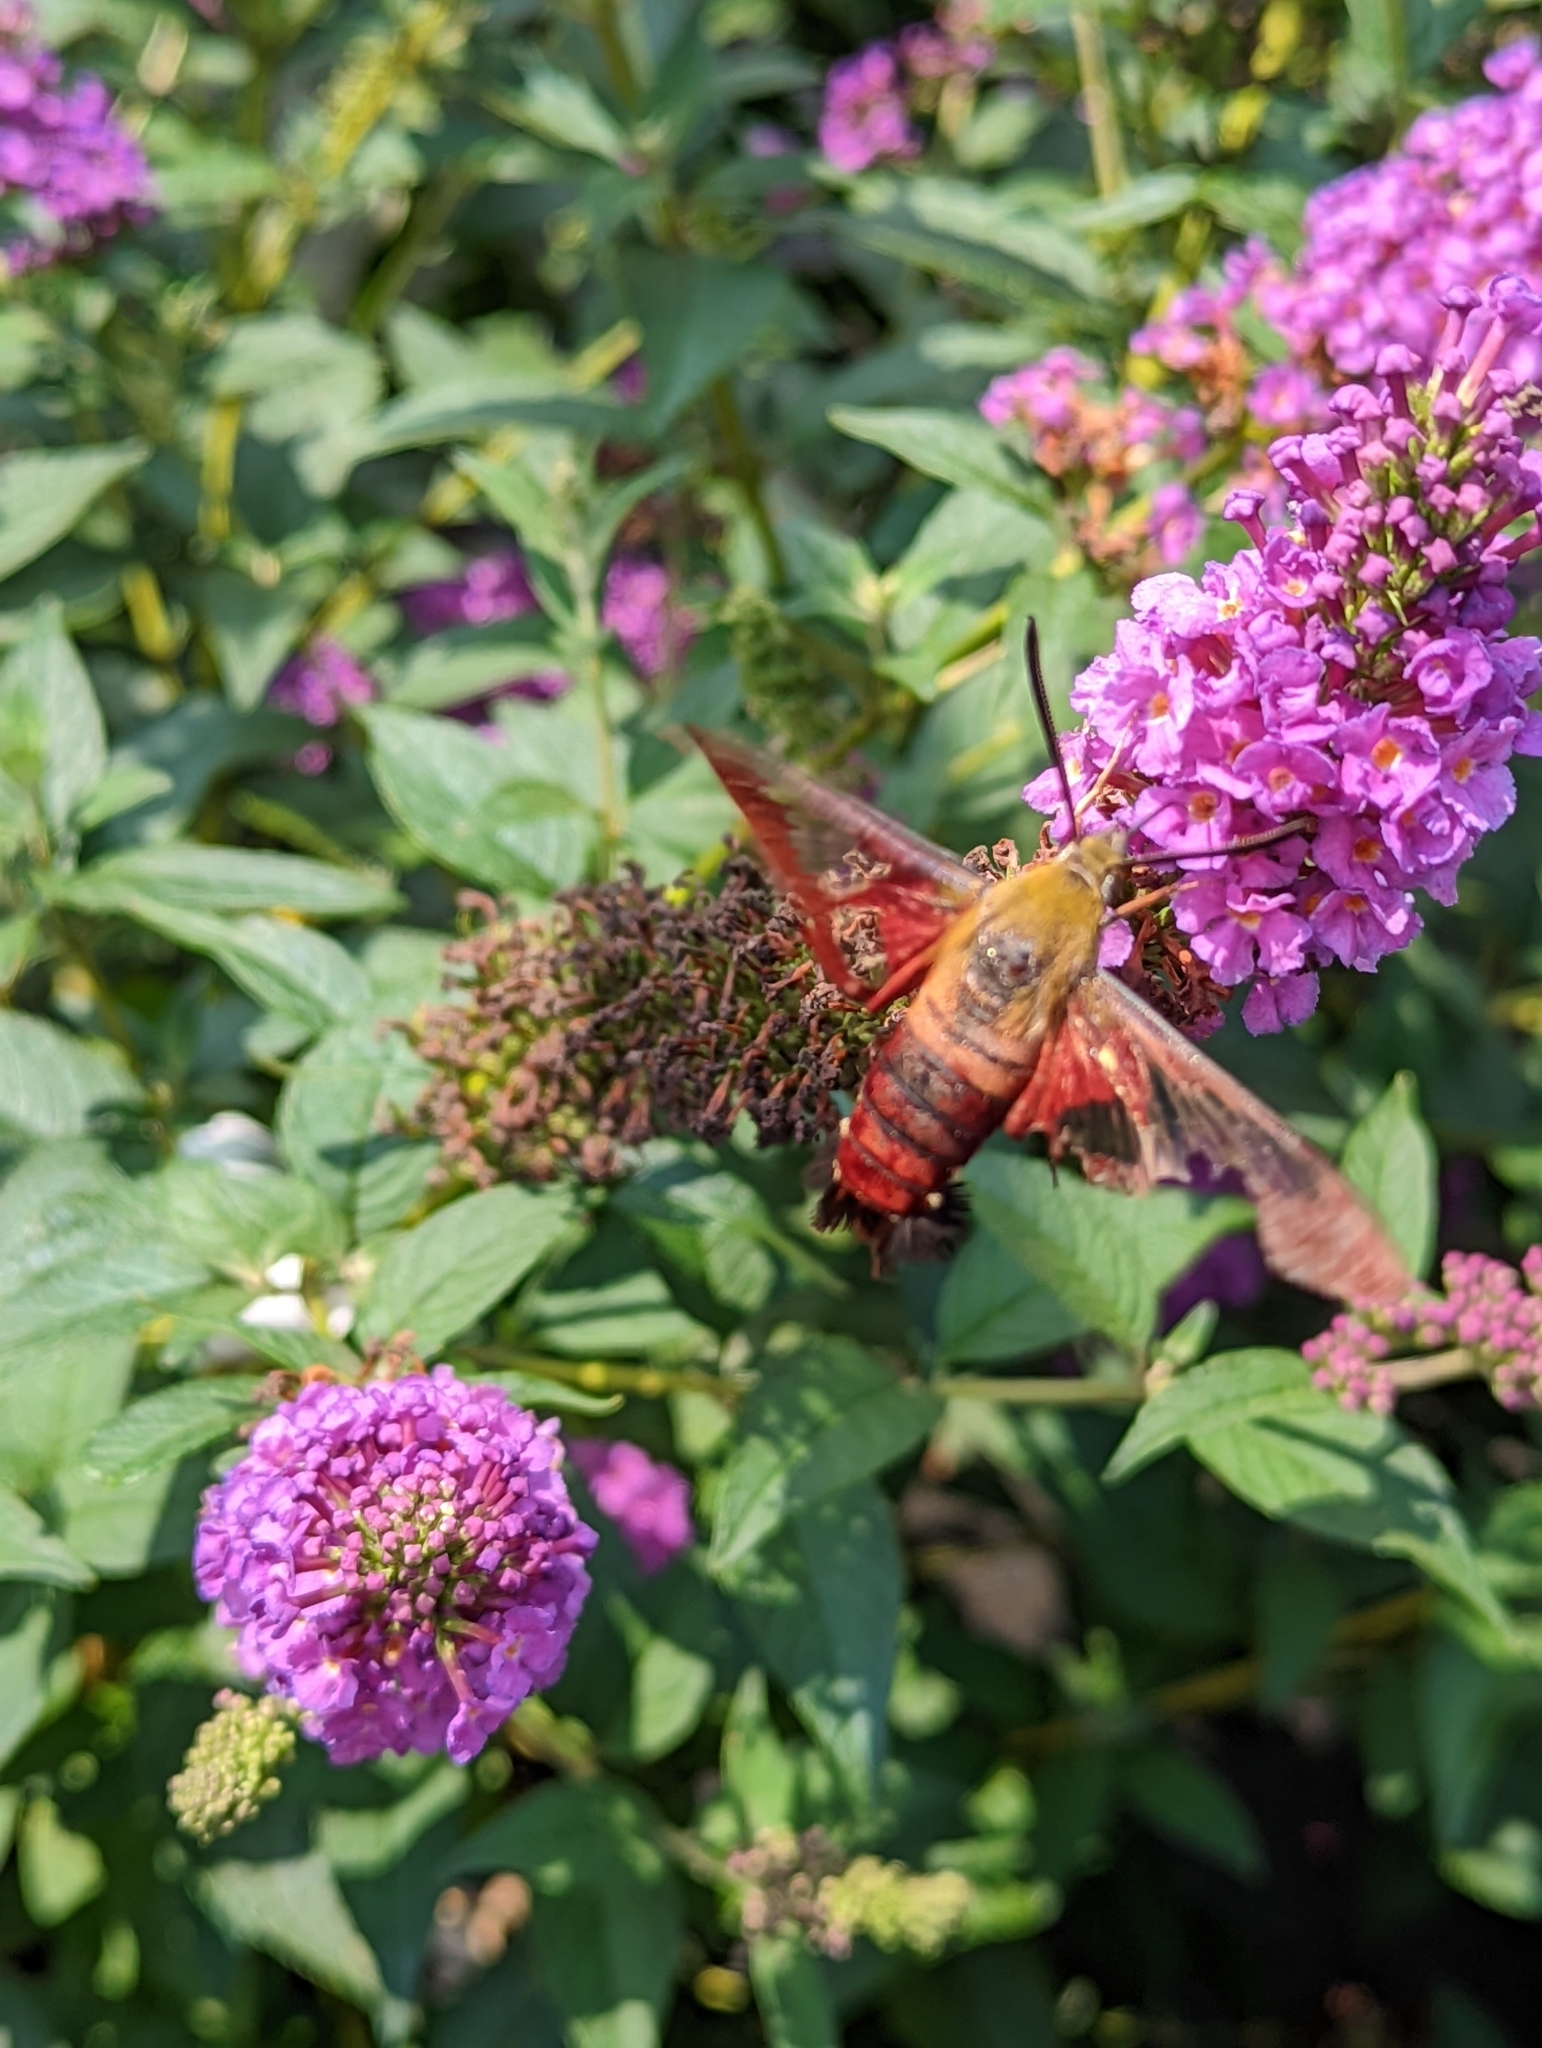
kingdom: Animalia
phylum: Arthropoda
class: Insecta
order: Lepidoptera
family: Sphingidae
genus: Hemaris
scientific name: Hemaris thysbe
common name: Common clear-wing
